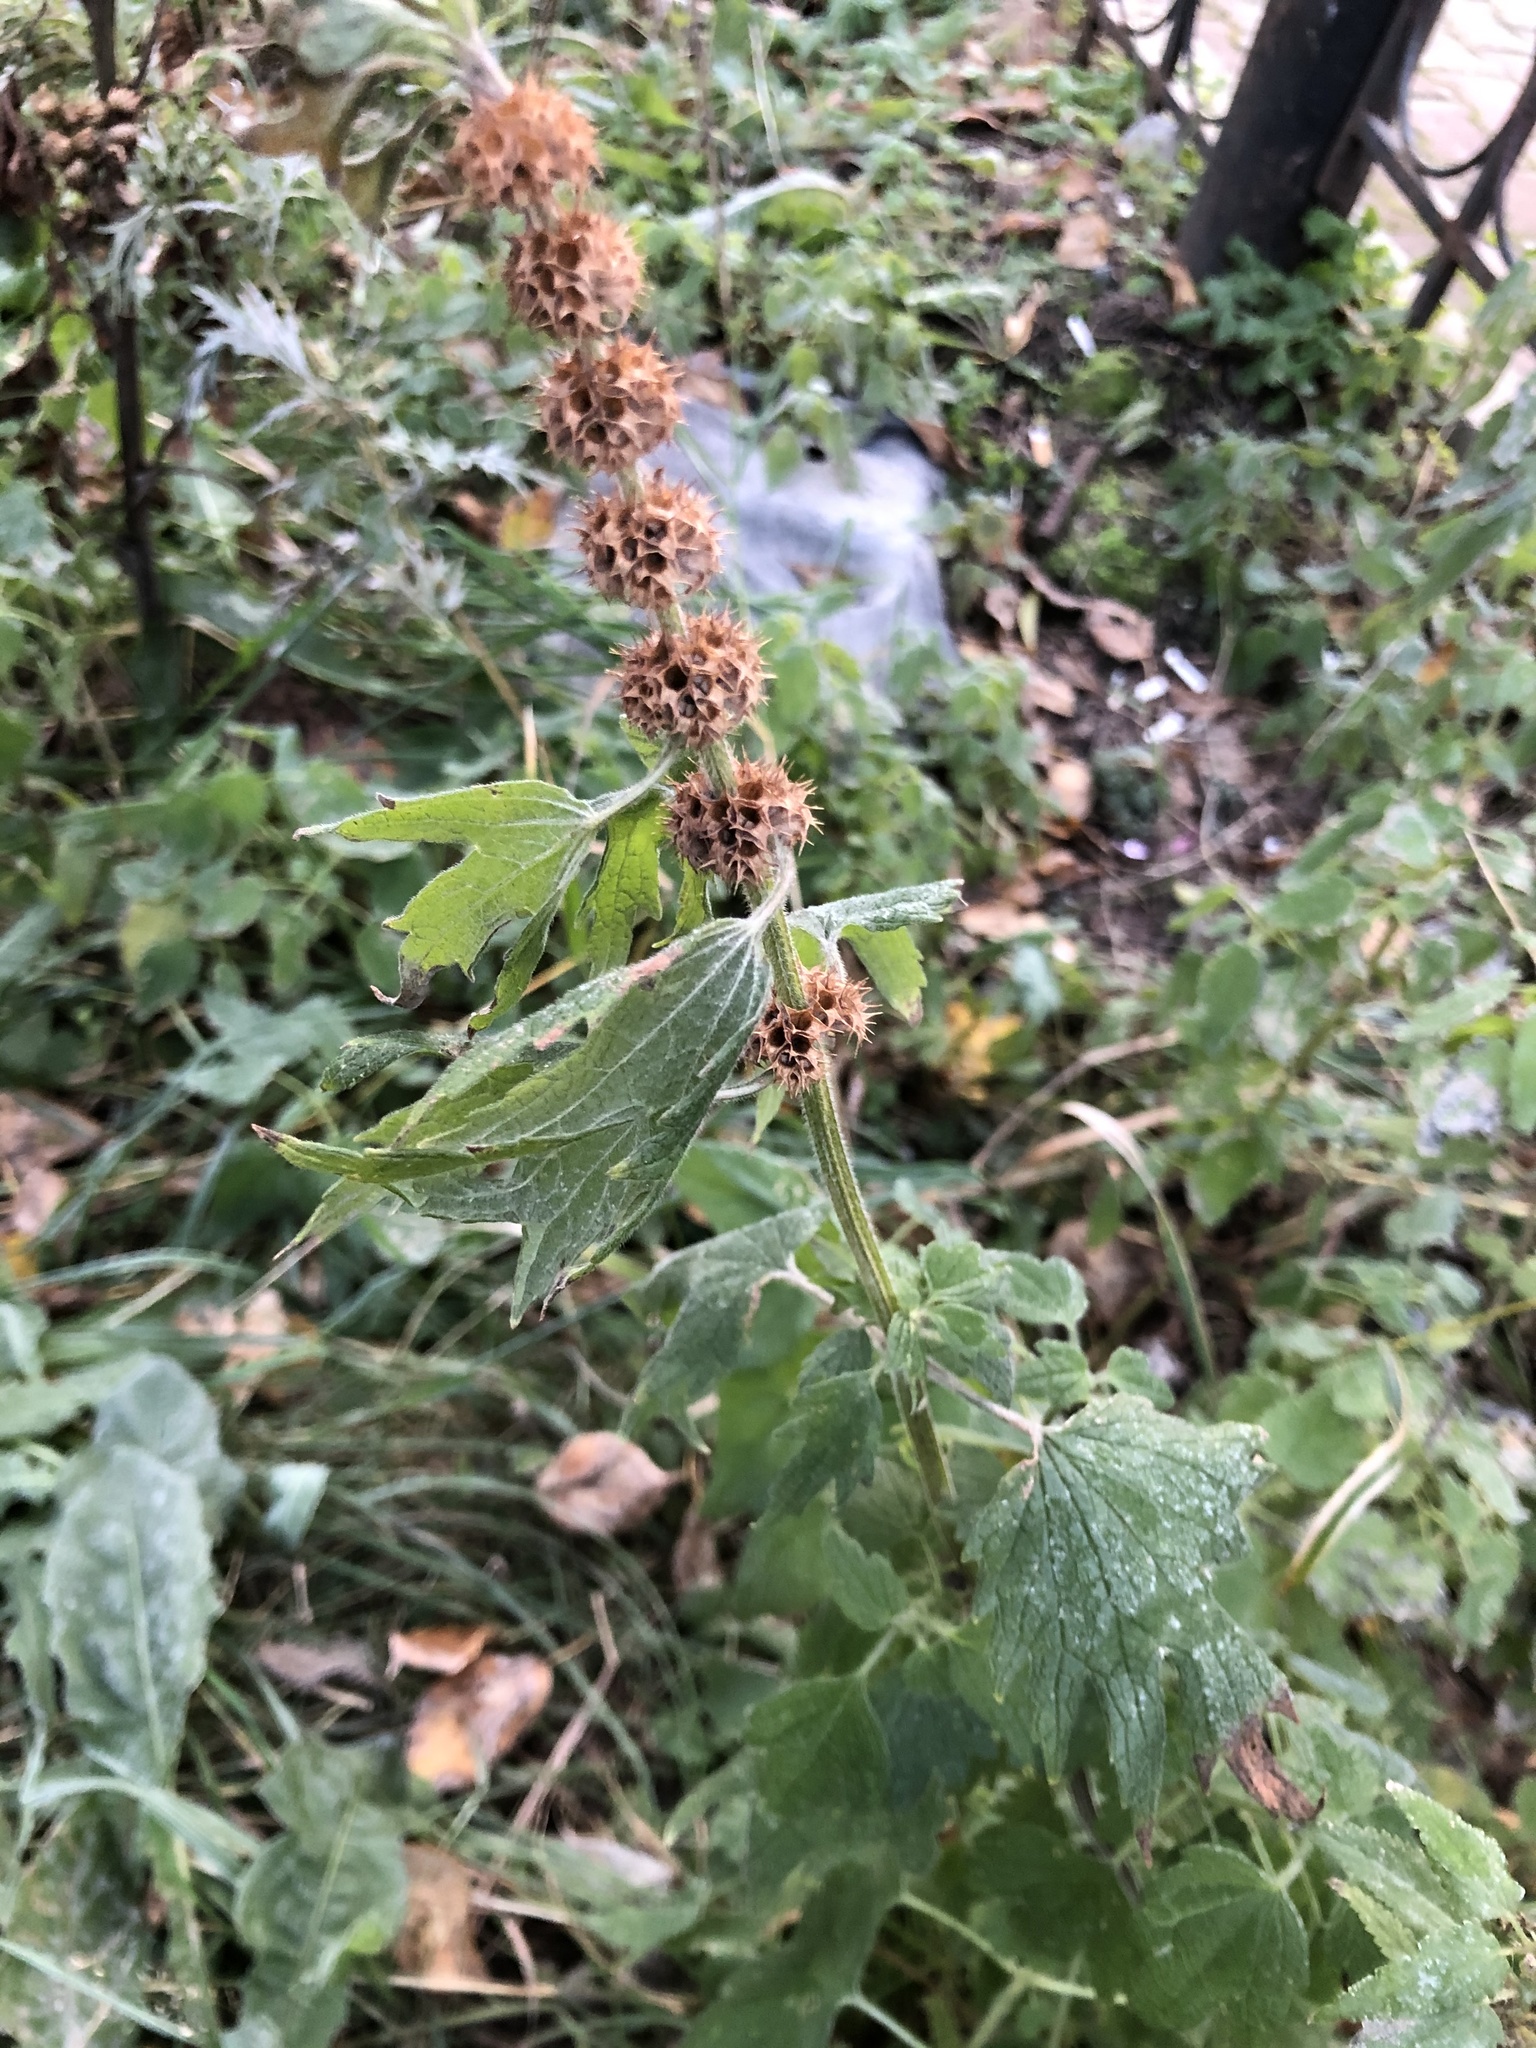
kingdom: Plantae
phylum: Tracheophyta
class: Magnoliopsida
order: Lamiales
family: Lamiaceae
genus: Leonurus
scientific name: Leonurus quinquelobatus
